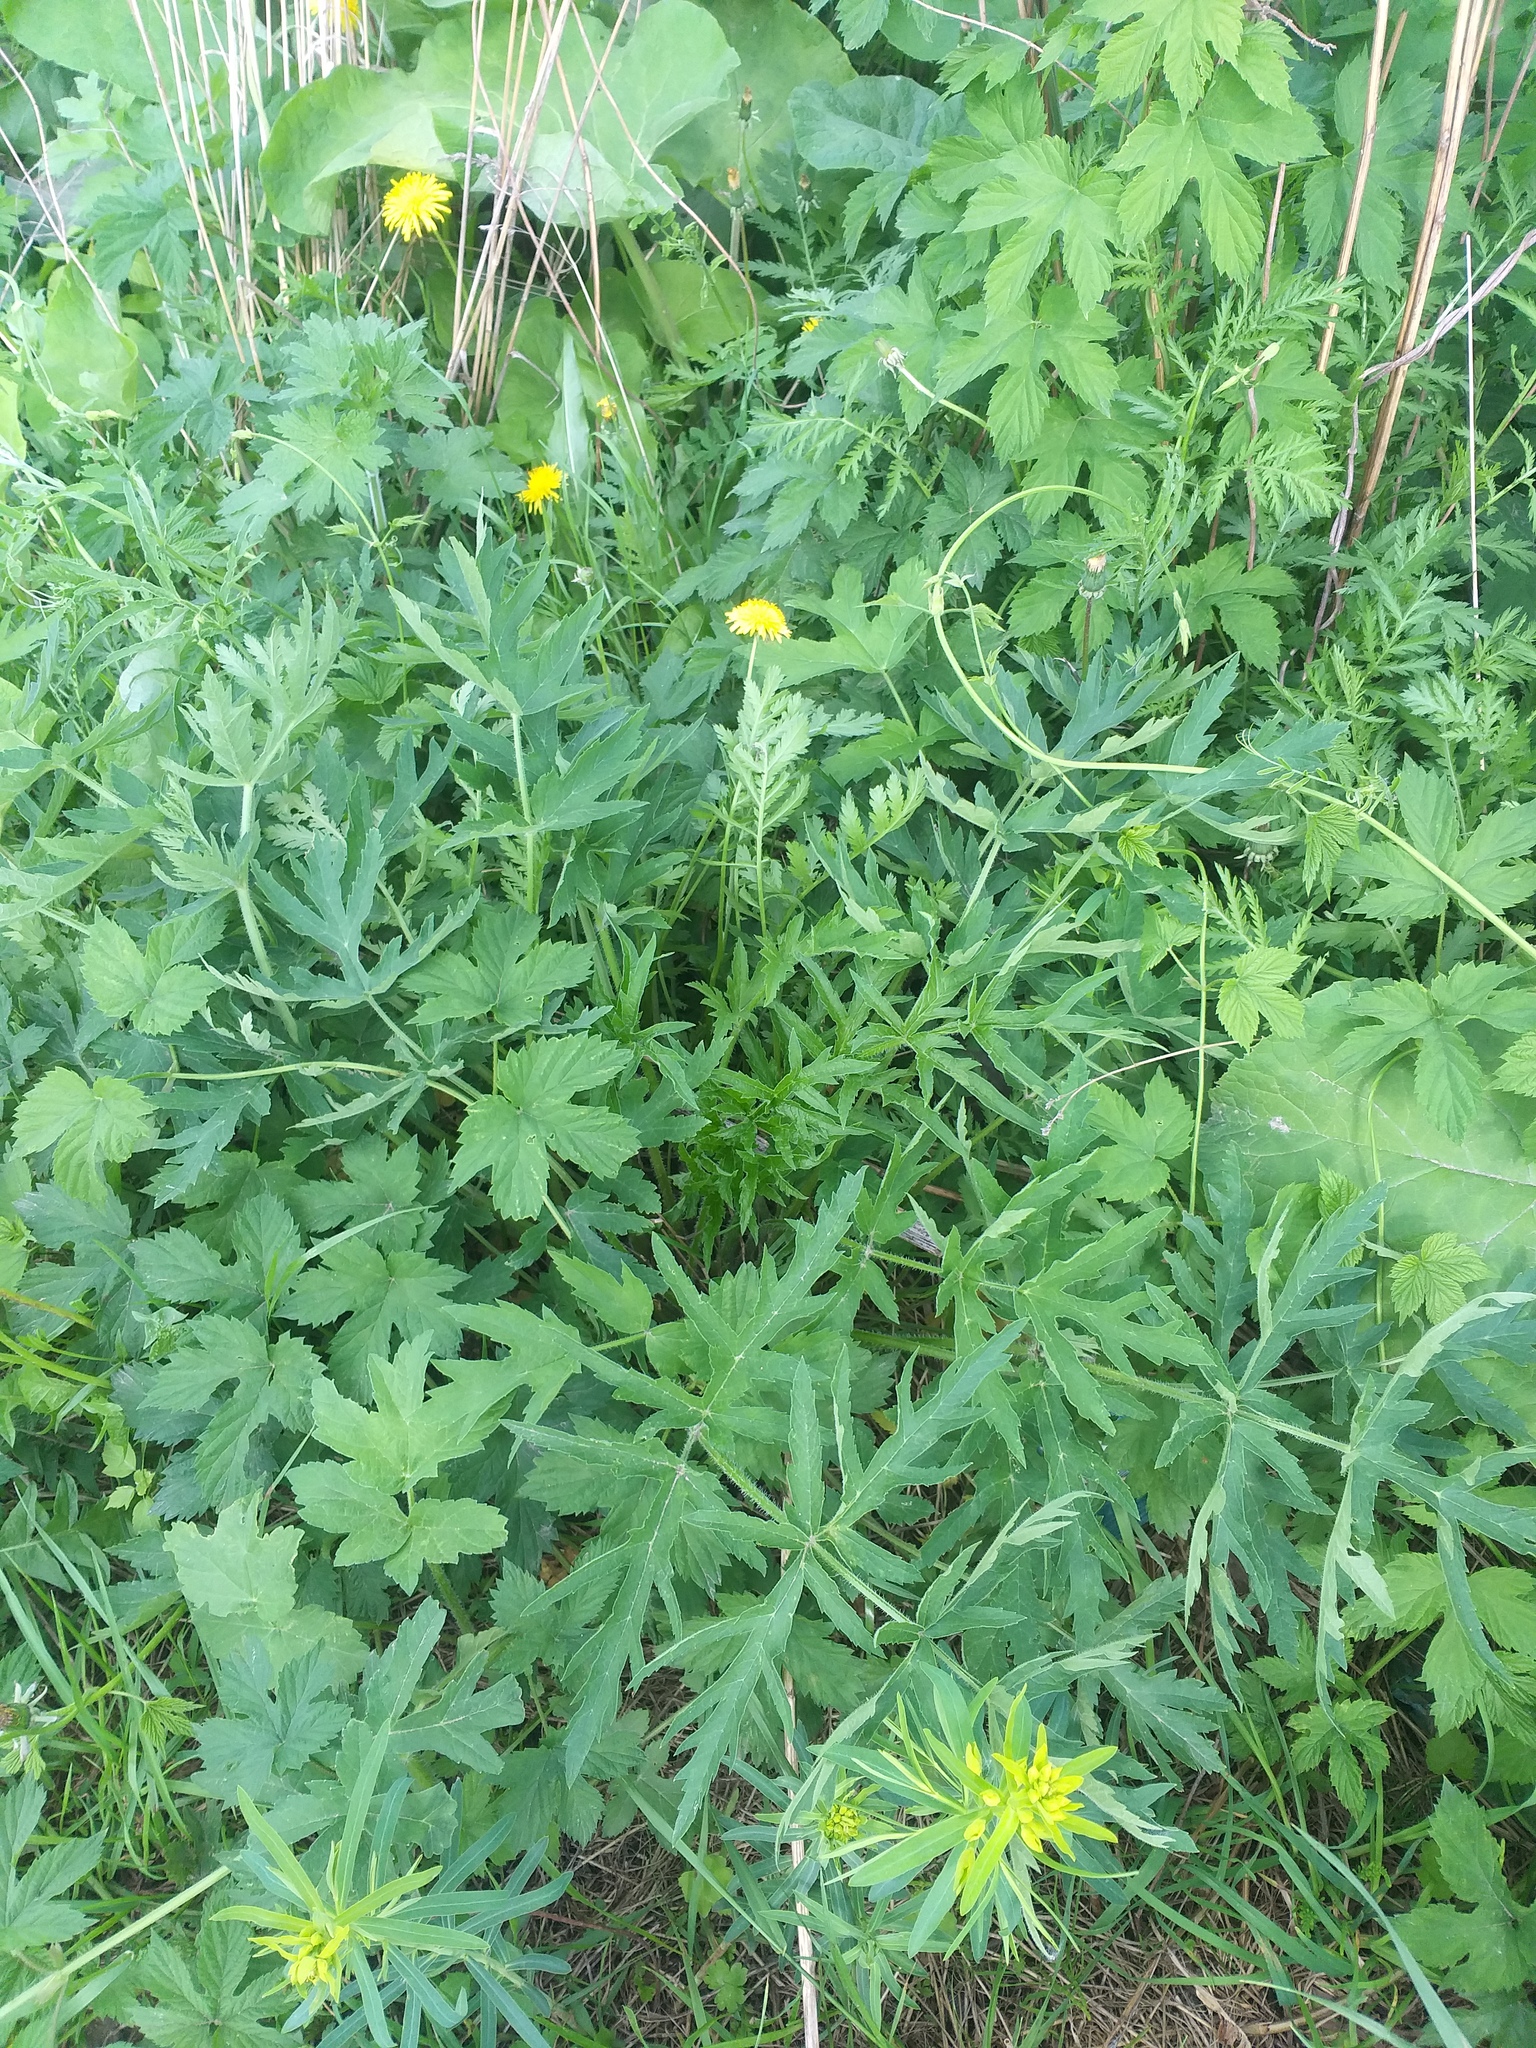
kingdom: Plantae
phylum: Tracheophyta
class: Magnoliopsida
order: Apiales
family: Apiaceae
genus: Heracleum
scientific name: Heracleum sphondylium
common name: Hogweed
